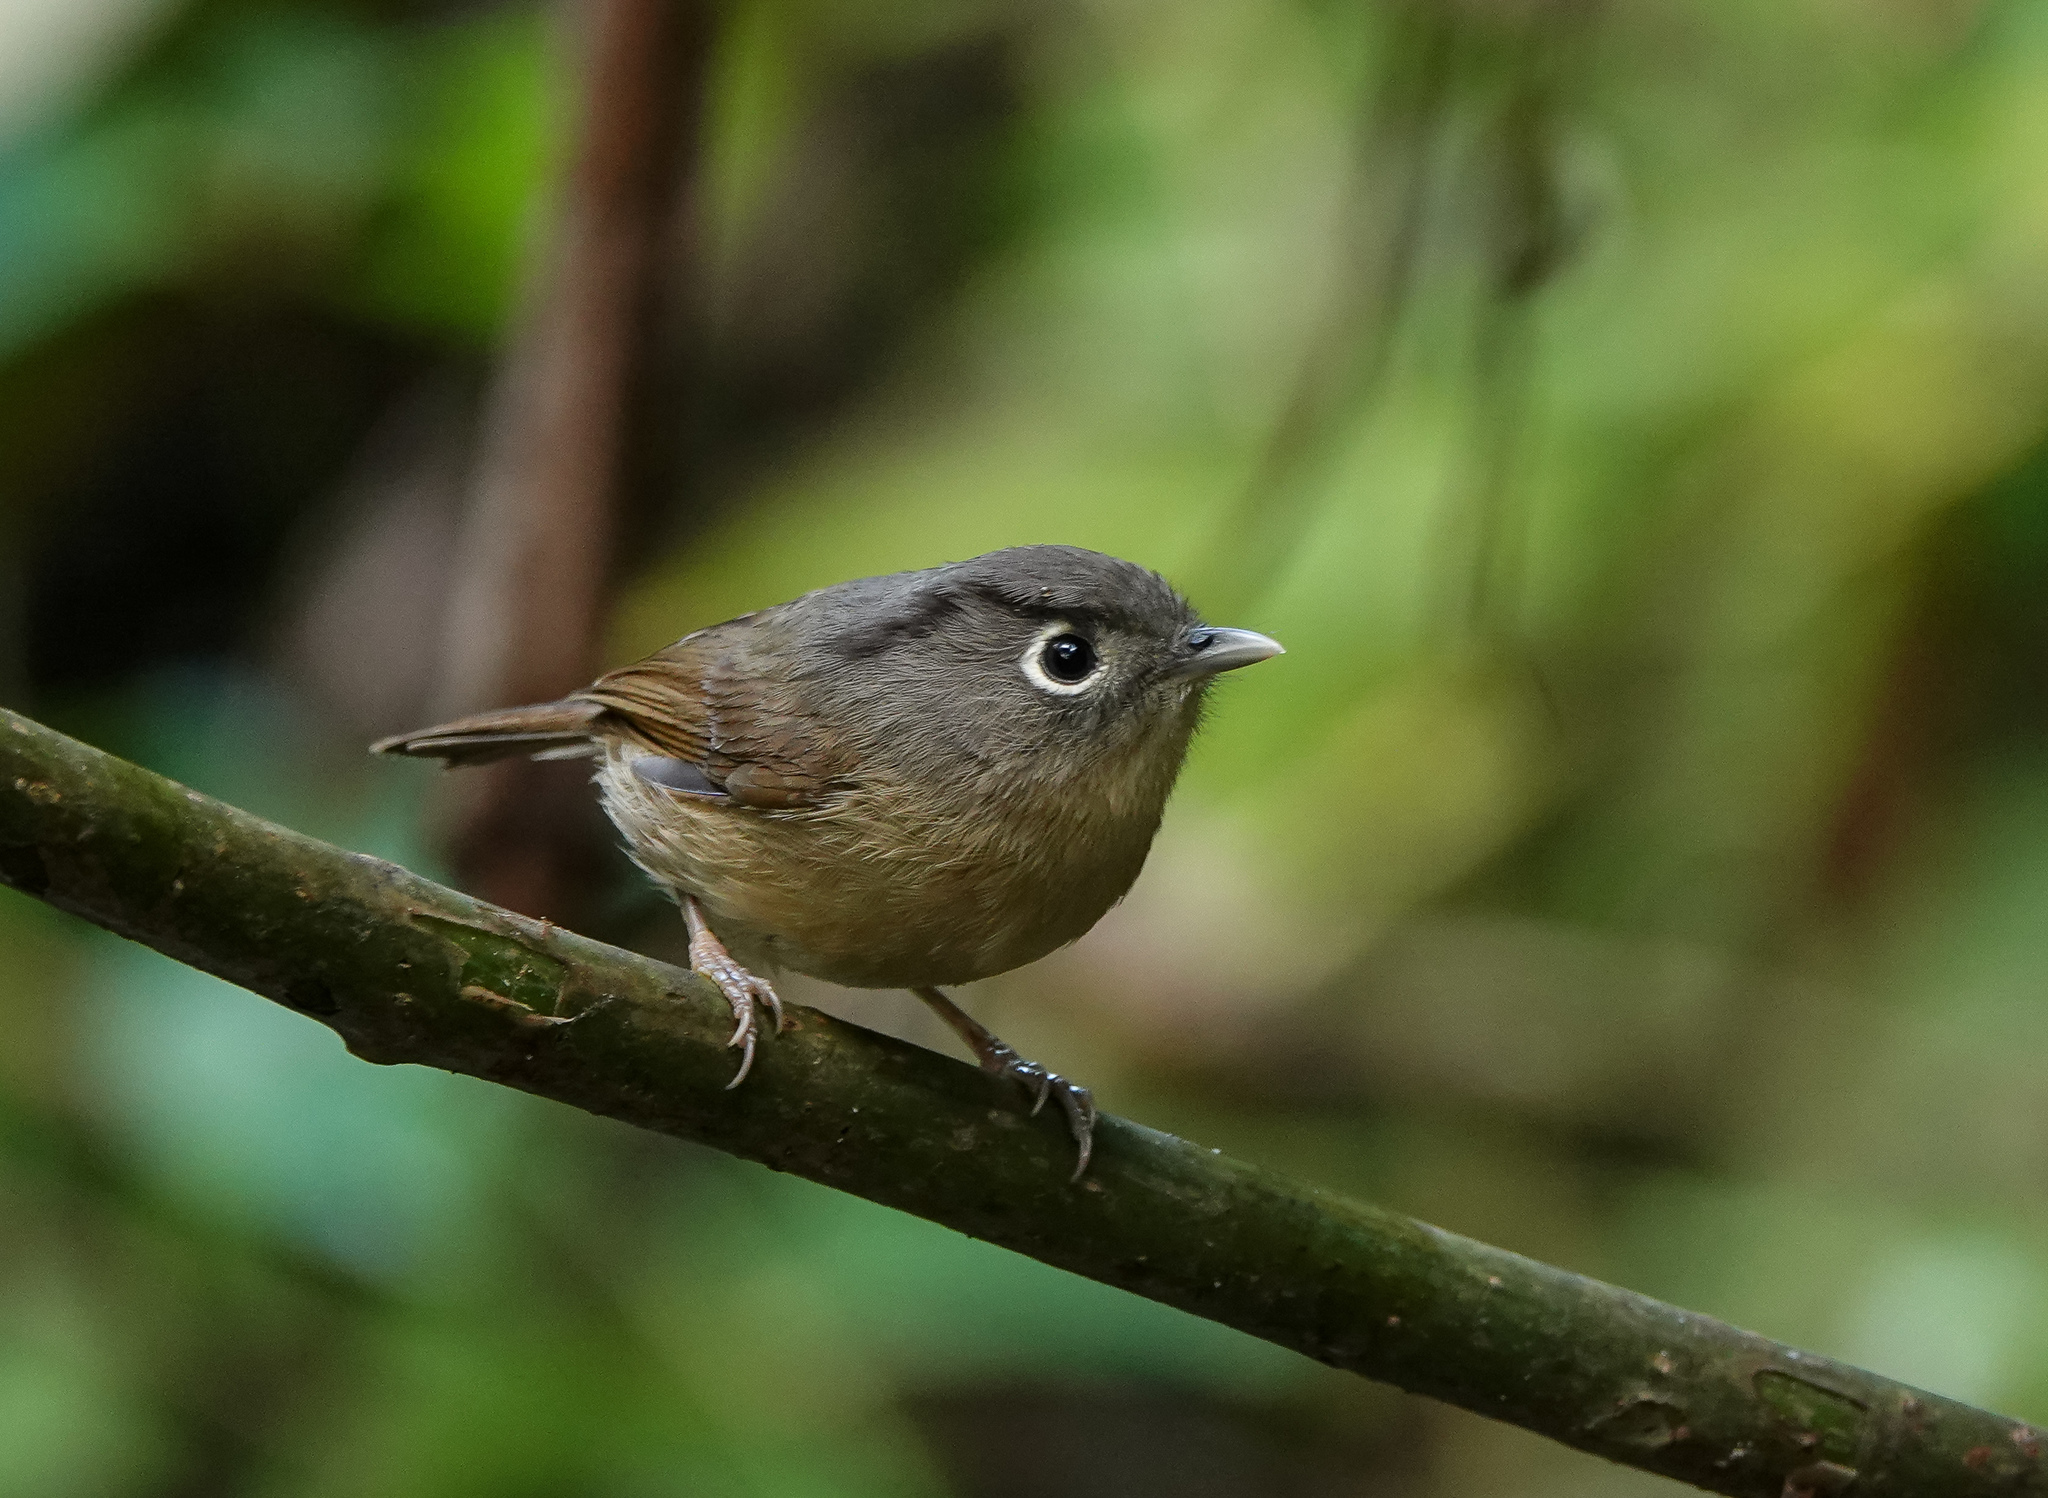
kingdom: Animalia
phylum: Chordata
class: Aves
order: Passeriformes
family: Pellorneidae
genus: Alcippe
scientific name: Alcippe nipalensis
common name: Nepal fulvetta
